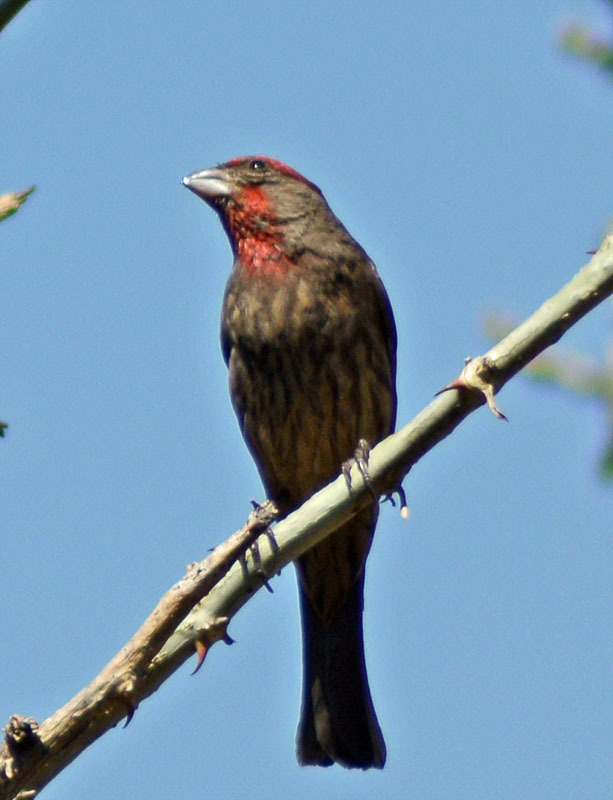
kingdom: Animalia
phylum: Chordata
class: Aves
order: Passeriformes
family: Fringillidae
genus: Haemorhous
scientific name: Haemorhous mexicanus
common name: House finch
